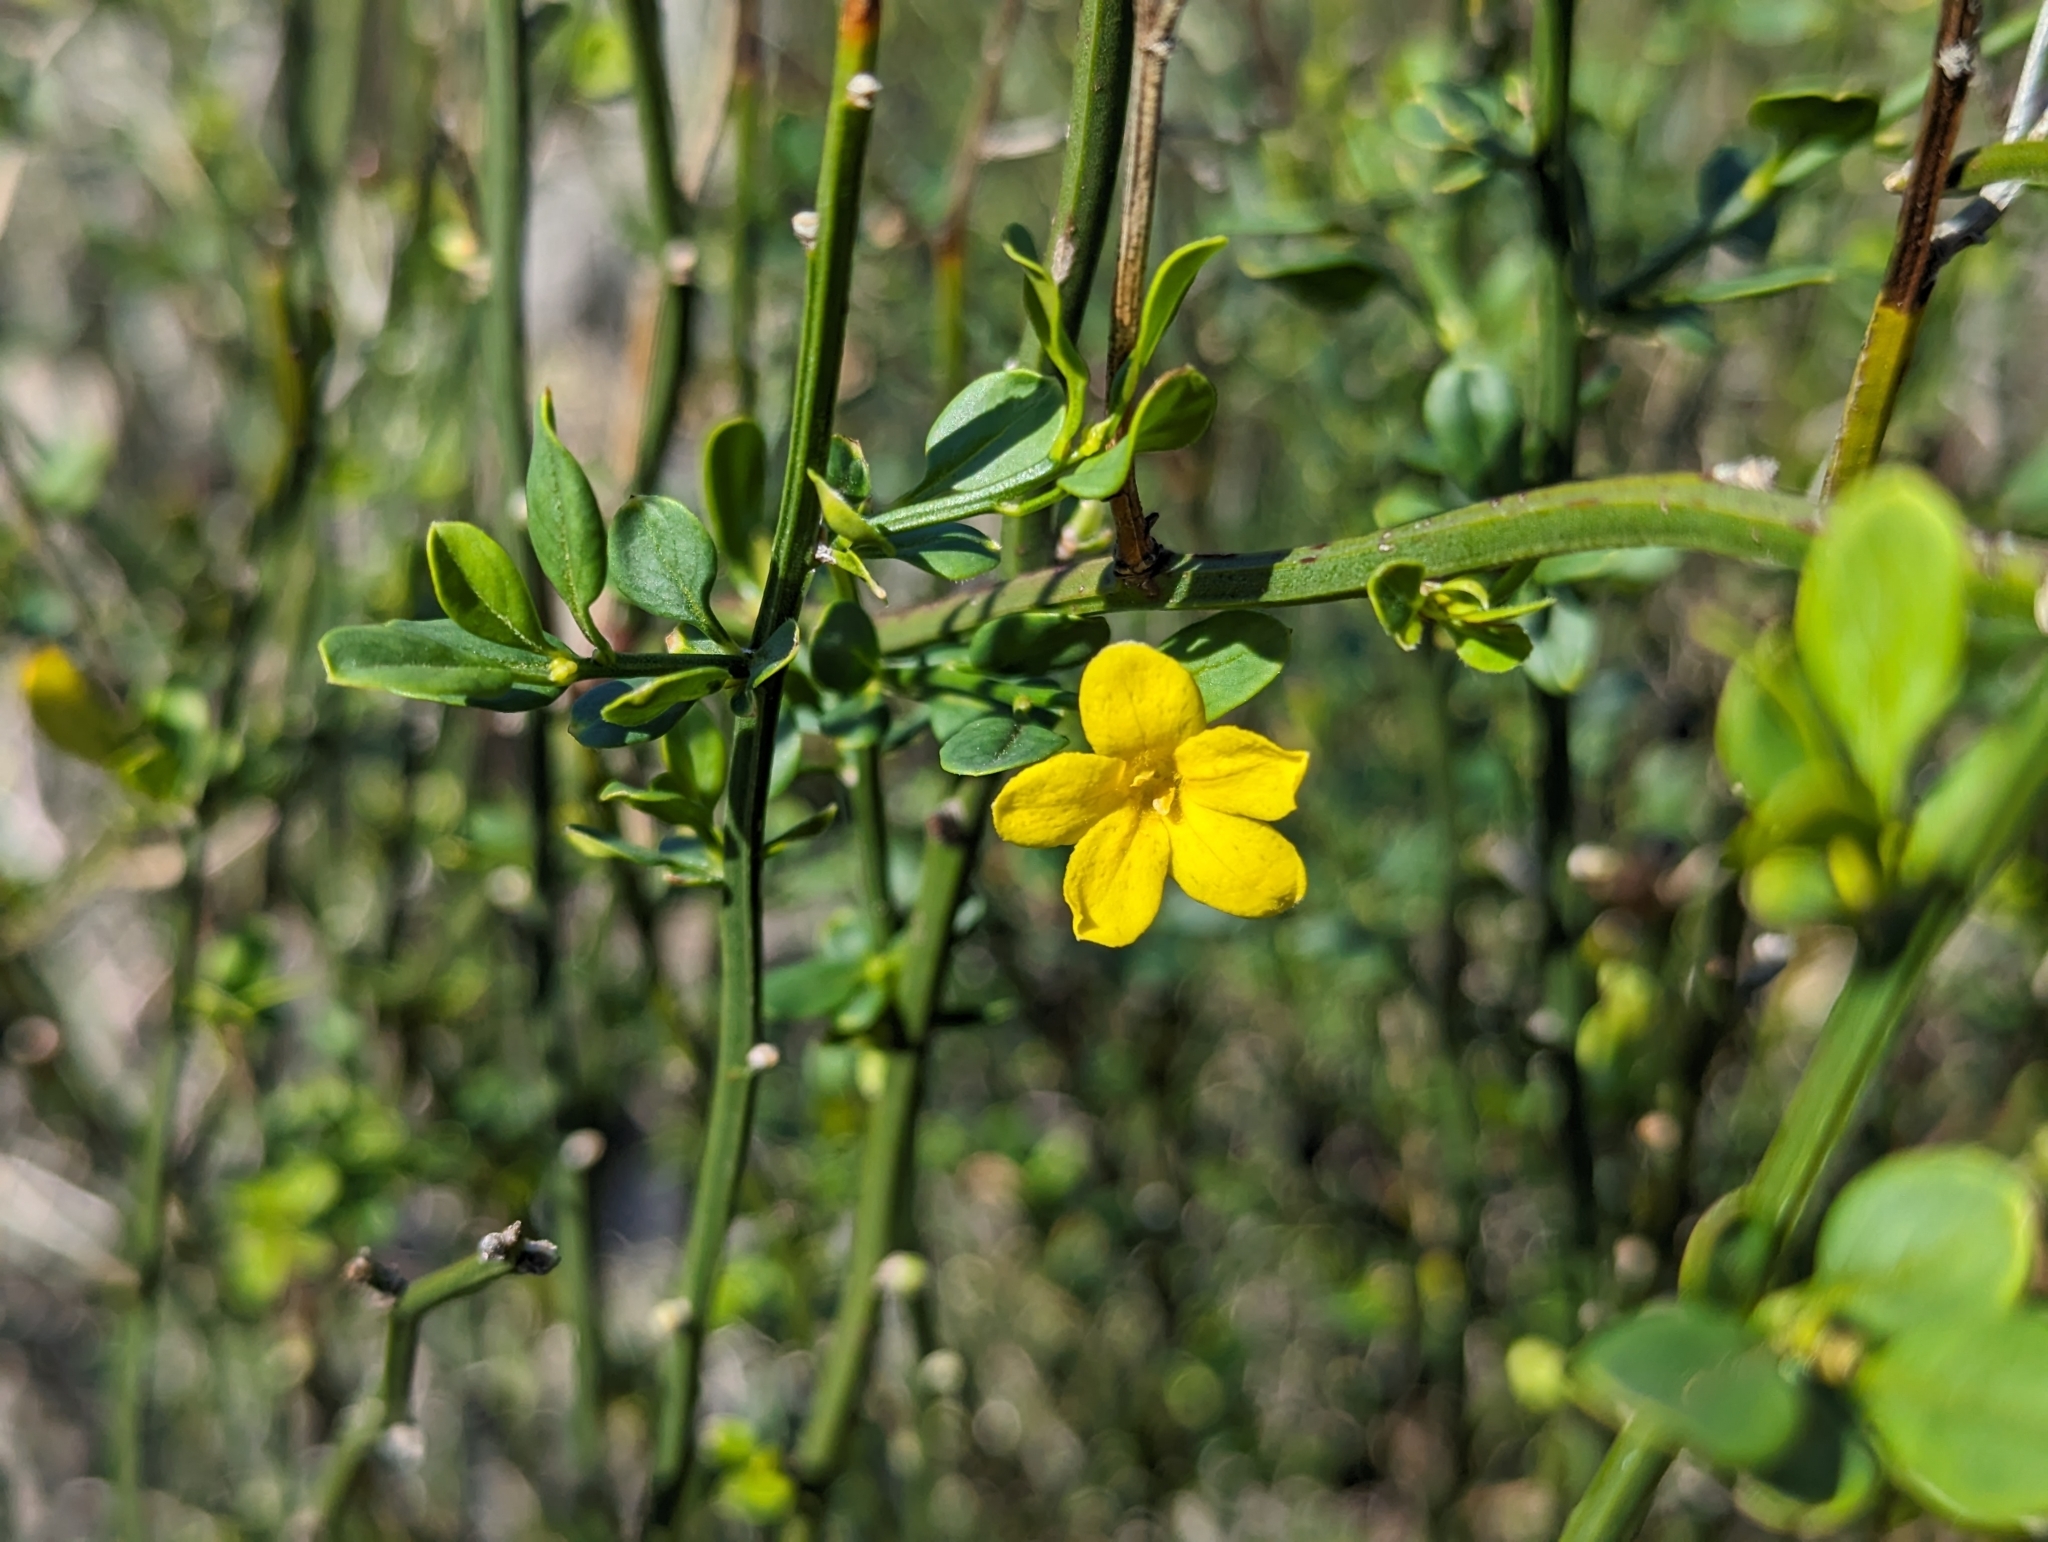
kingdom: Plantae
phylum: Tracheophyta
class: Magnoliopsida
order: Lamiales
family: Oleaceae
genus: Chrysojasminum
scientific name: Chrysojasminum fruticans
